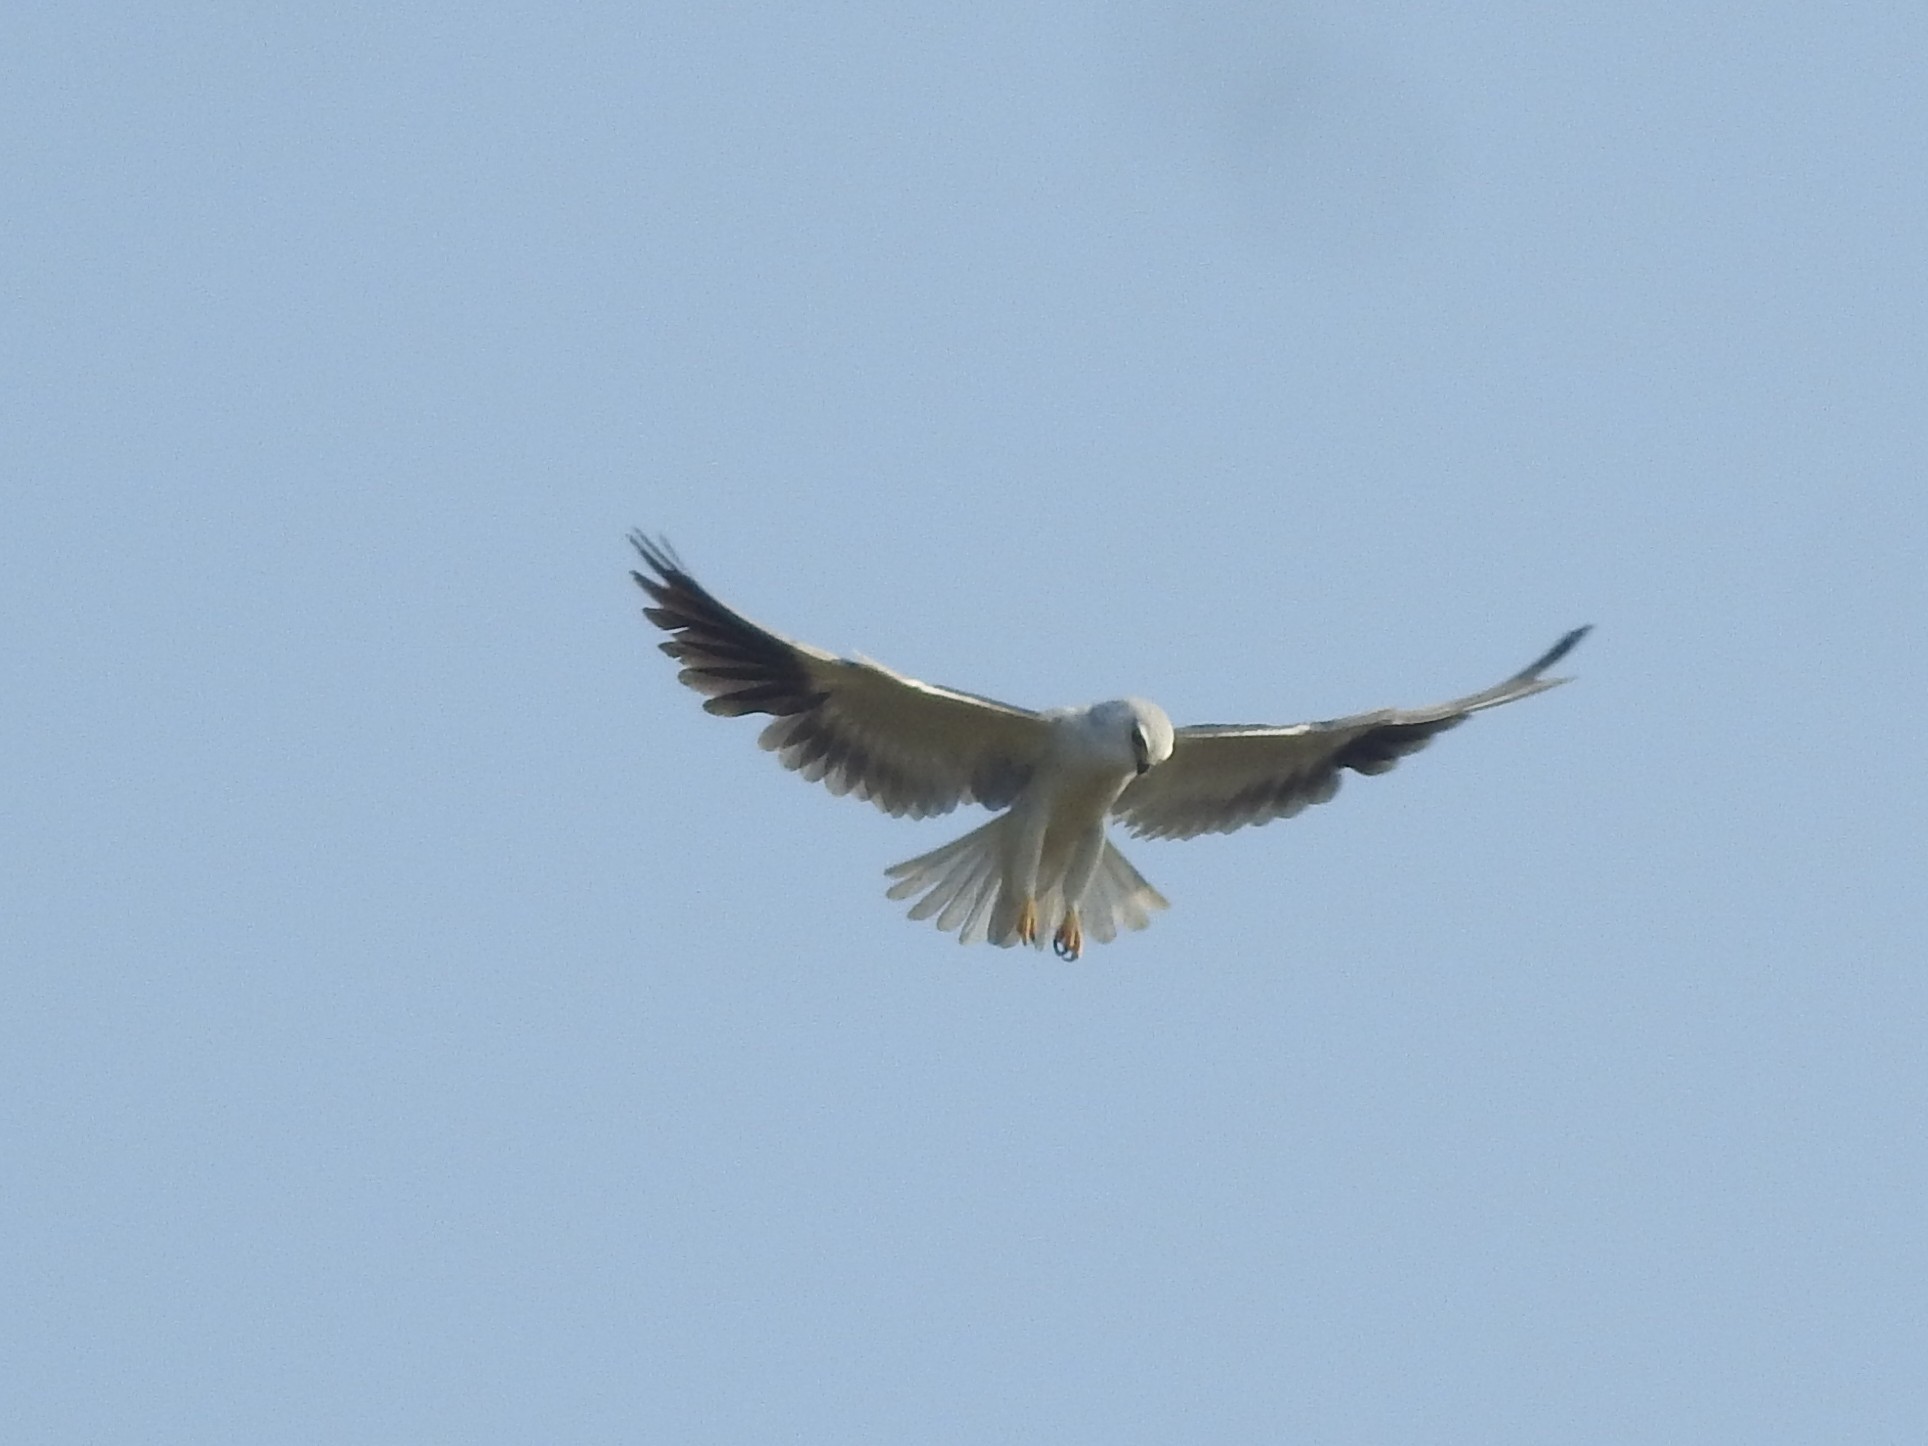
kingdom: Animalia
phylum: Chordata
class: Aves
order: Accipitriformes
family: Accipitridae
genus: Elanus
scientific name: Elanus caeruleus
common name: Black-winged kite
